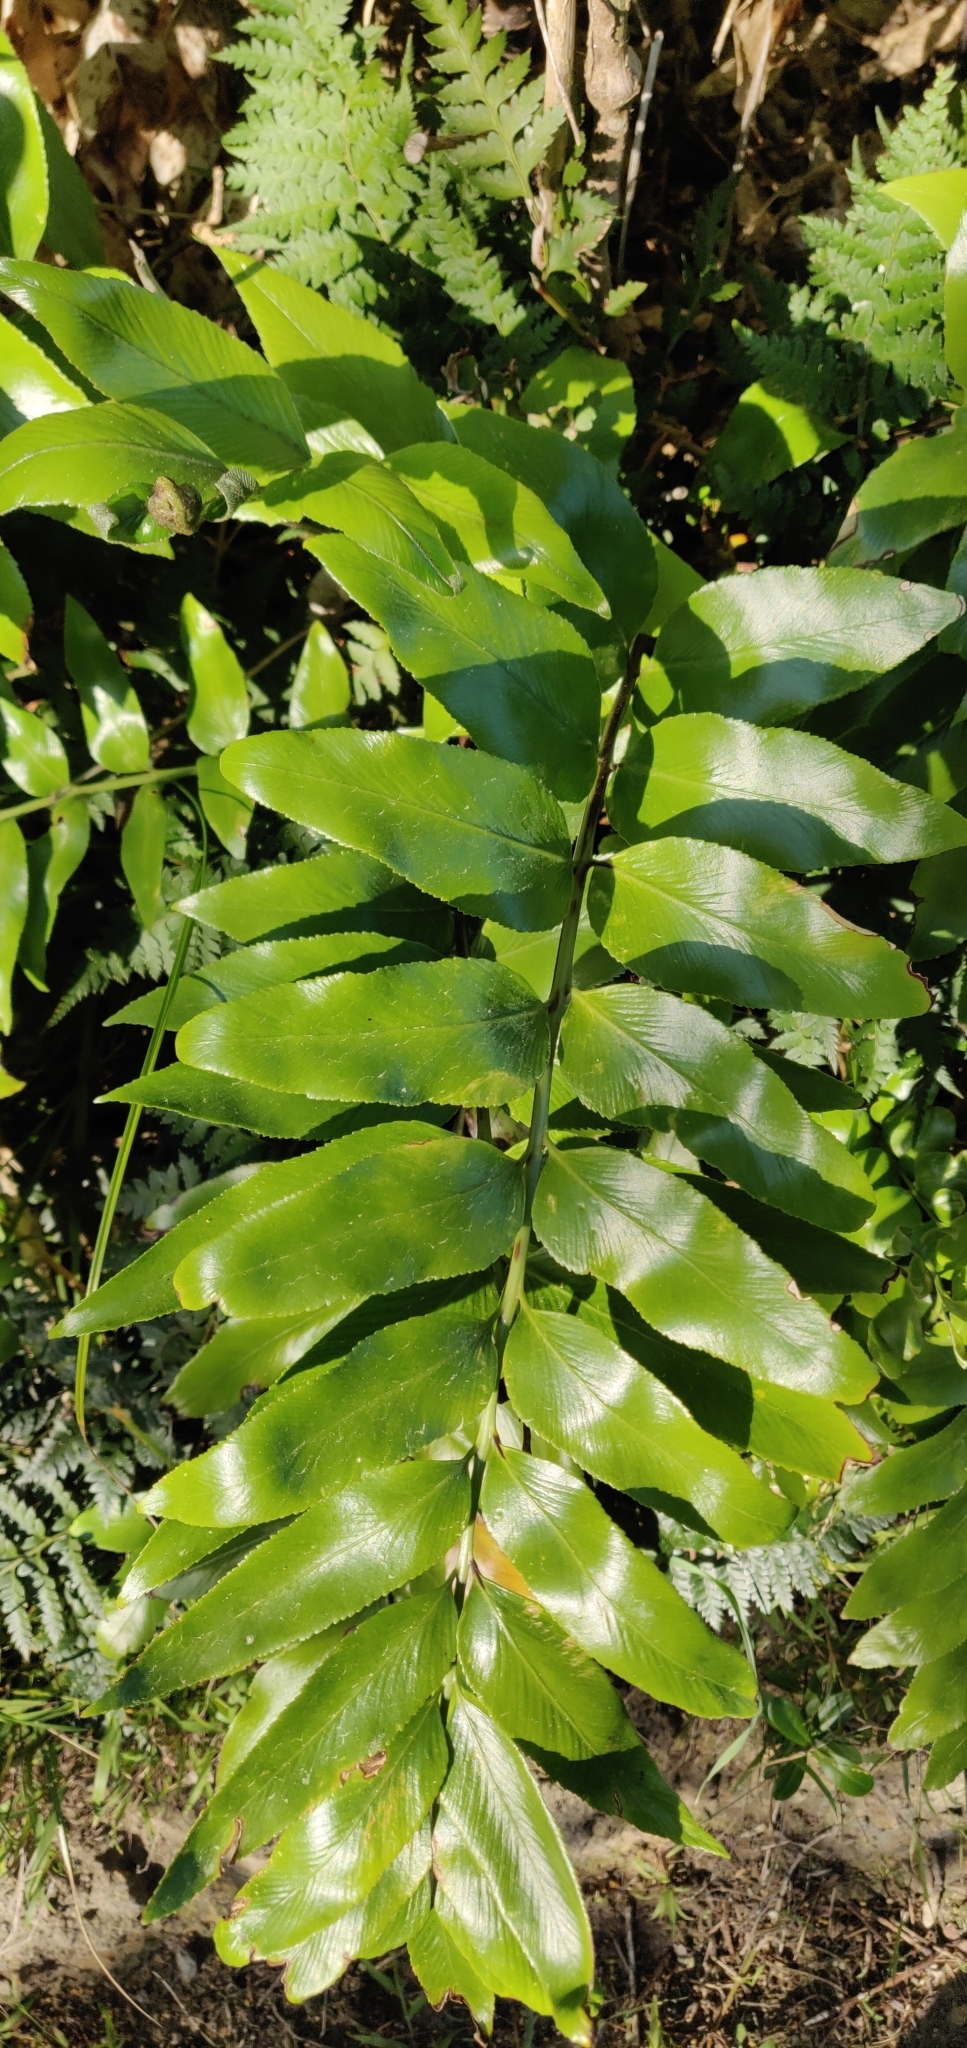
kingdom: Plantae
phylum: Tracheophyta
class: Polypodiopsida
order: Polypodiales
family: Aspleniaceae
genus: Asplenium
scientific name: Asplenium oblongifolium
